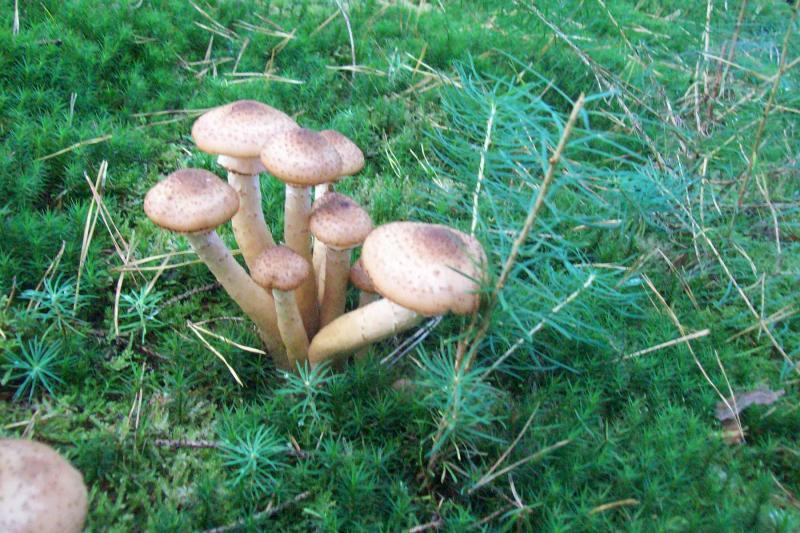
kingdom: Fungi
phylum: Basidiomycota
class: Agaricomycetes
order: Agaricales
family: Physalacriaceae
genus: Armillaria
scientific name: Armillaria ostoyae
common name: Dark honey fungus
